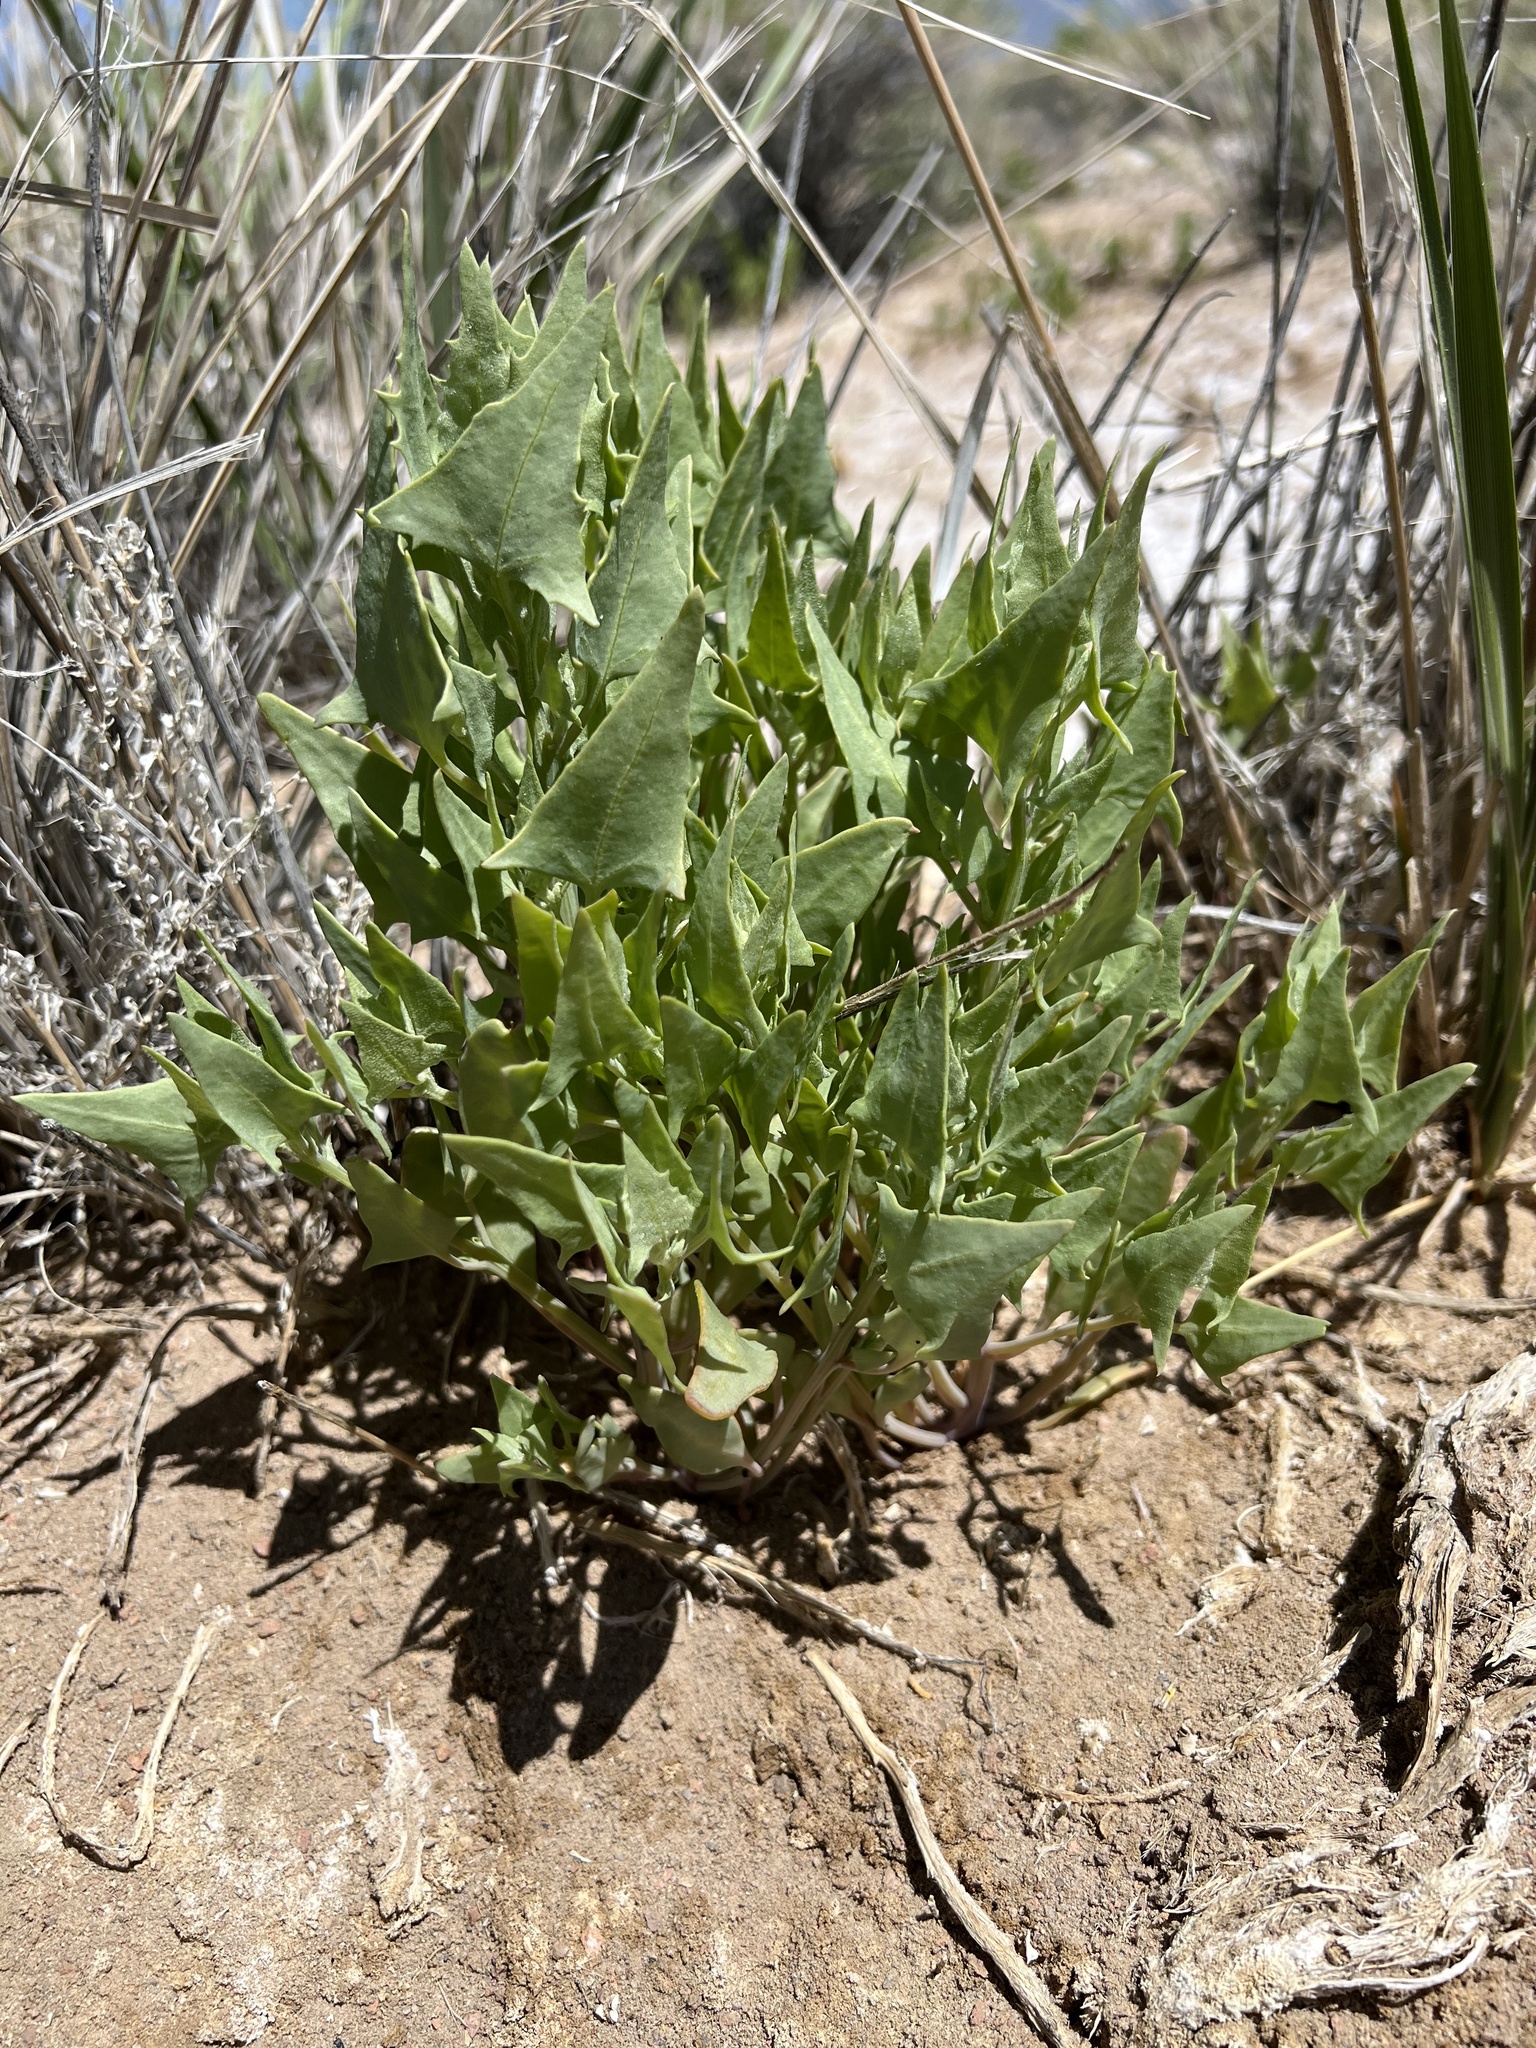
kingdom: Plantae
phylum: Tracheophyta
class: Magnoliopsida
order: Caryophyllales
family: Amaranthaceae
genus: Stutzia
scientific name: Stutzia covillei
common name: Coville's orach
